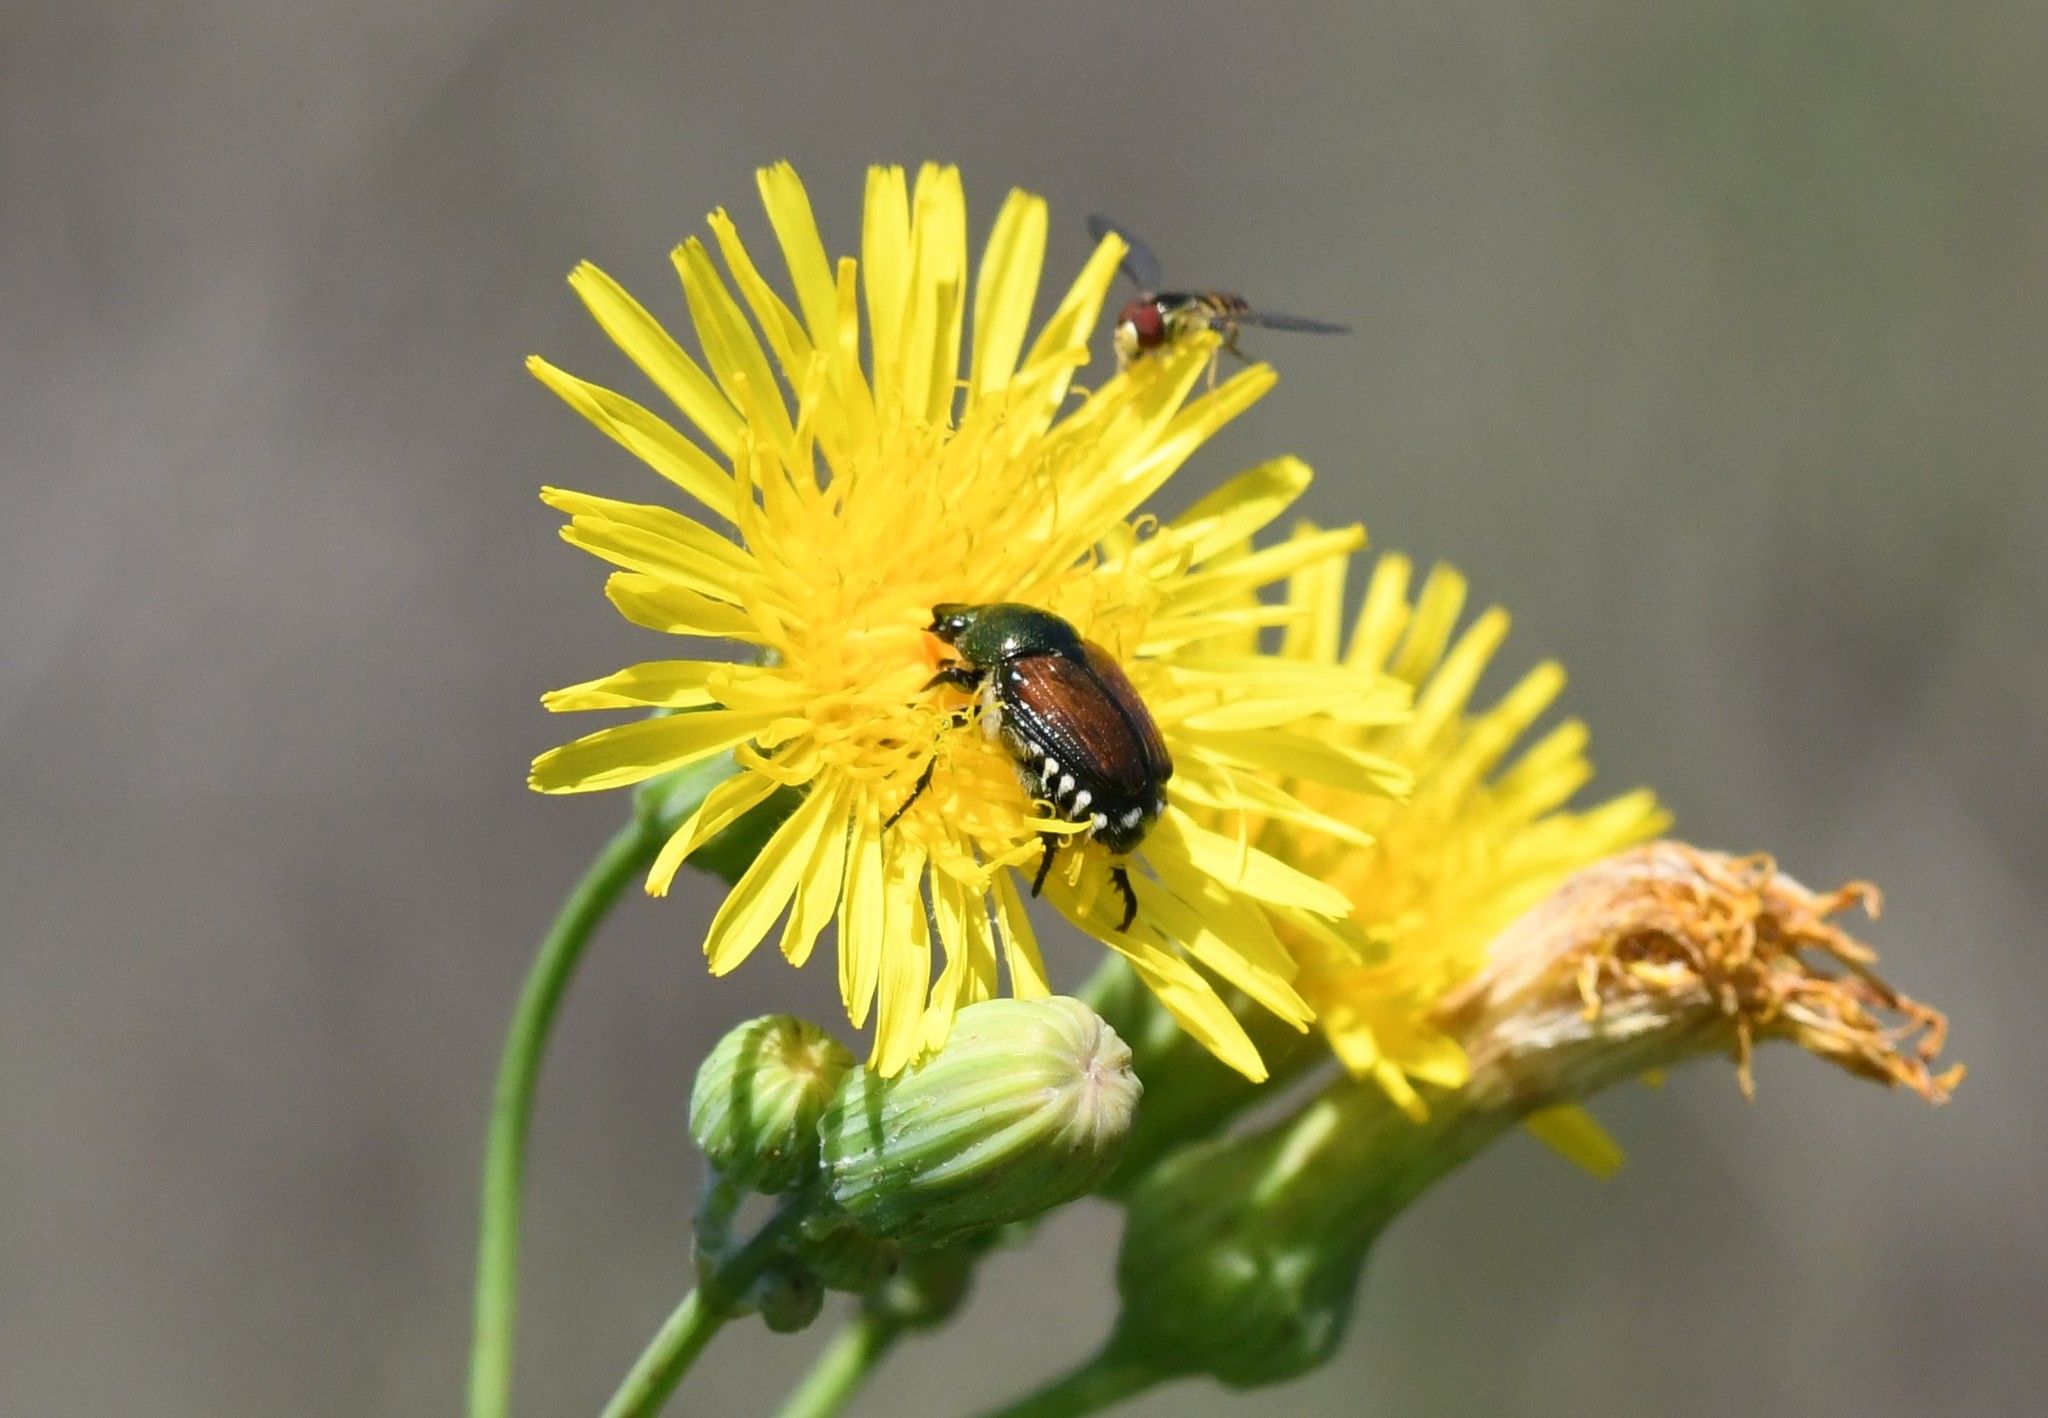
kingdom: Animalia
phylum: Arthropoda
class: Insecta
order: Coleoptera
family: Scarabaeidae
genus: Popillia
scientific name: Popillia japonica
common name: Japanese beetle
